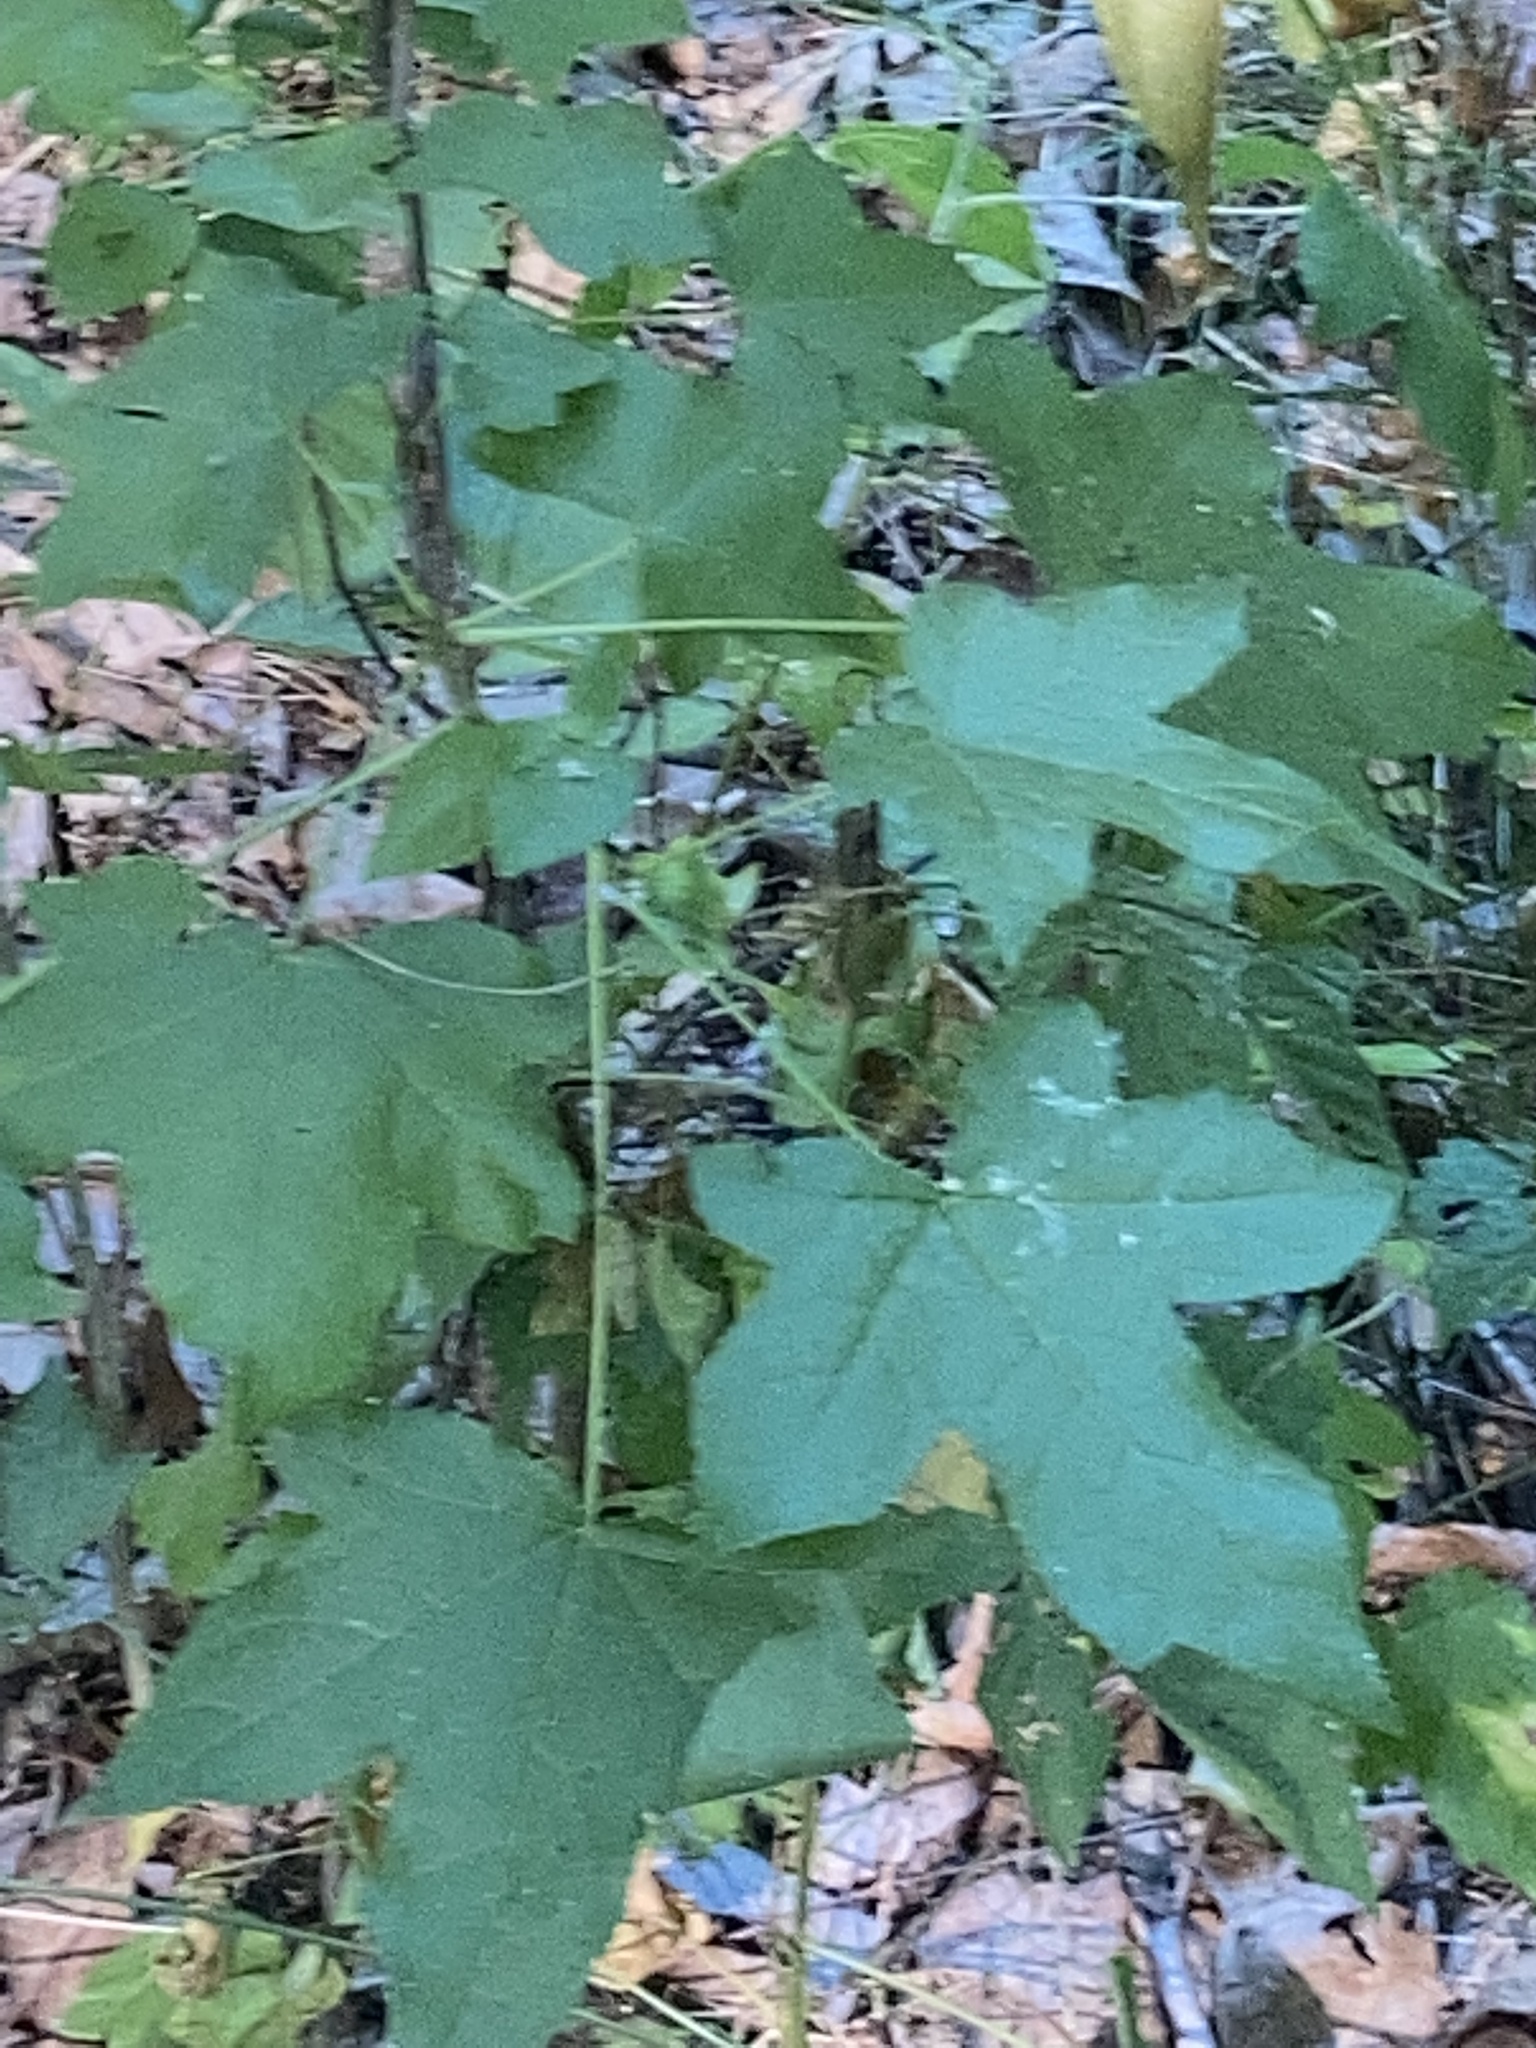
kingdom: Plantae
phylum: Tracheophyta
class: Magnoliopsida
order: Saxifragales
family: Altingiaceae
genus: Liquidambar
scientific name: Liquidambar styraciflua
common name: Sweet gum
